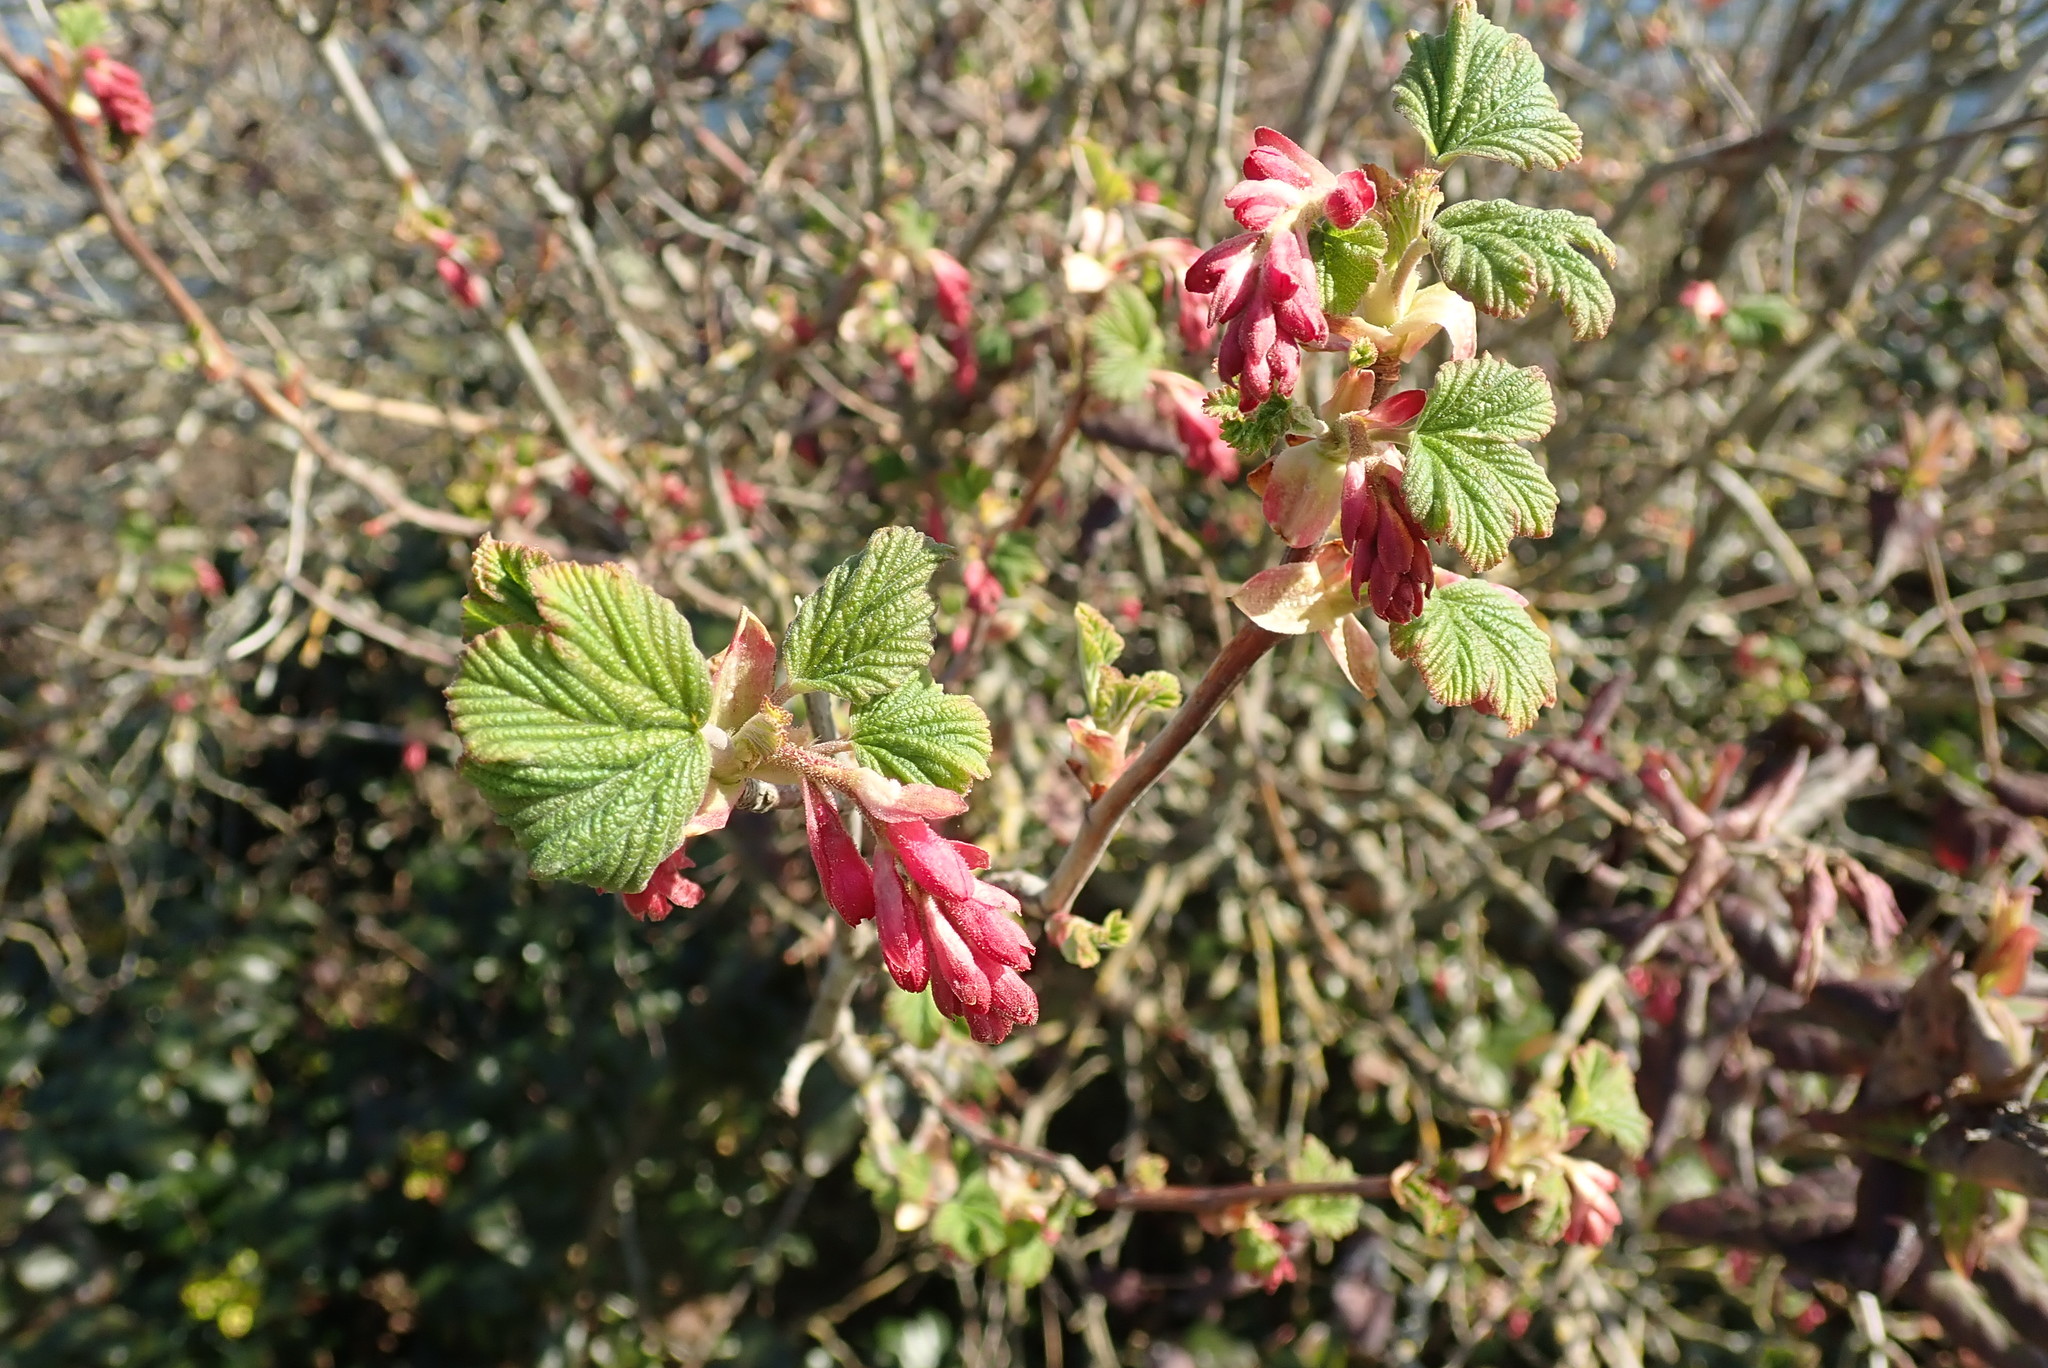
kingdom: Plantae
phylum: Tracheophyta
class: Magnoliopsida
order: Saxifragales
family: Grossulariaceae
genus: Ribes
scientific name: Ribes sanguineum
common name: Flowering currant
